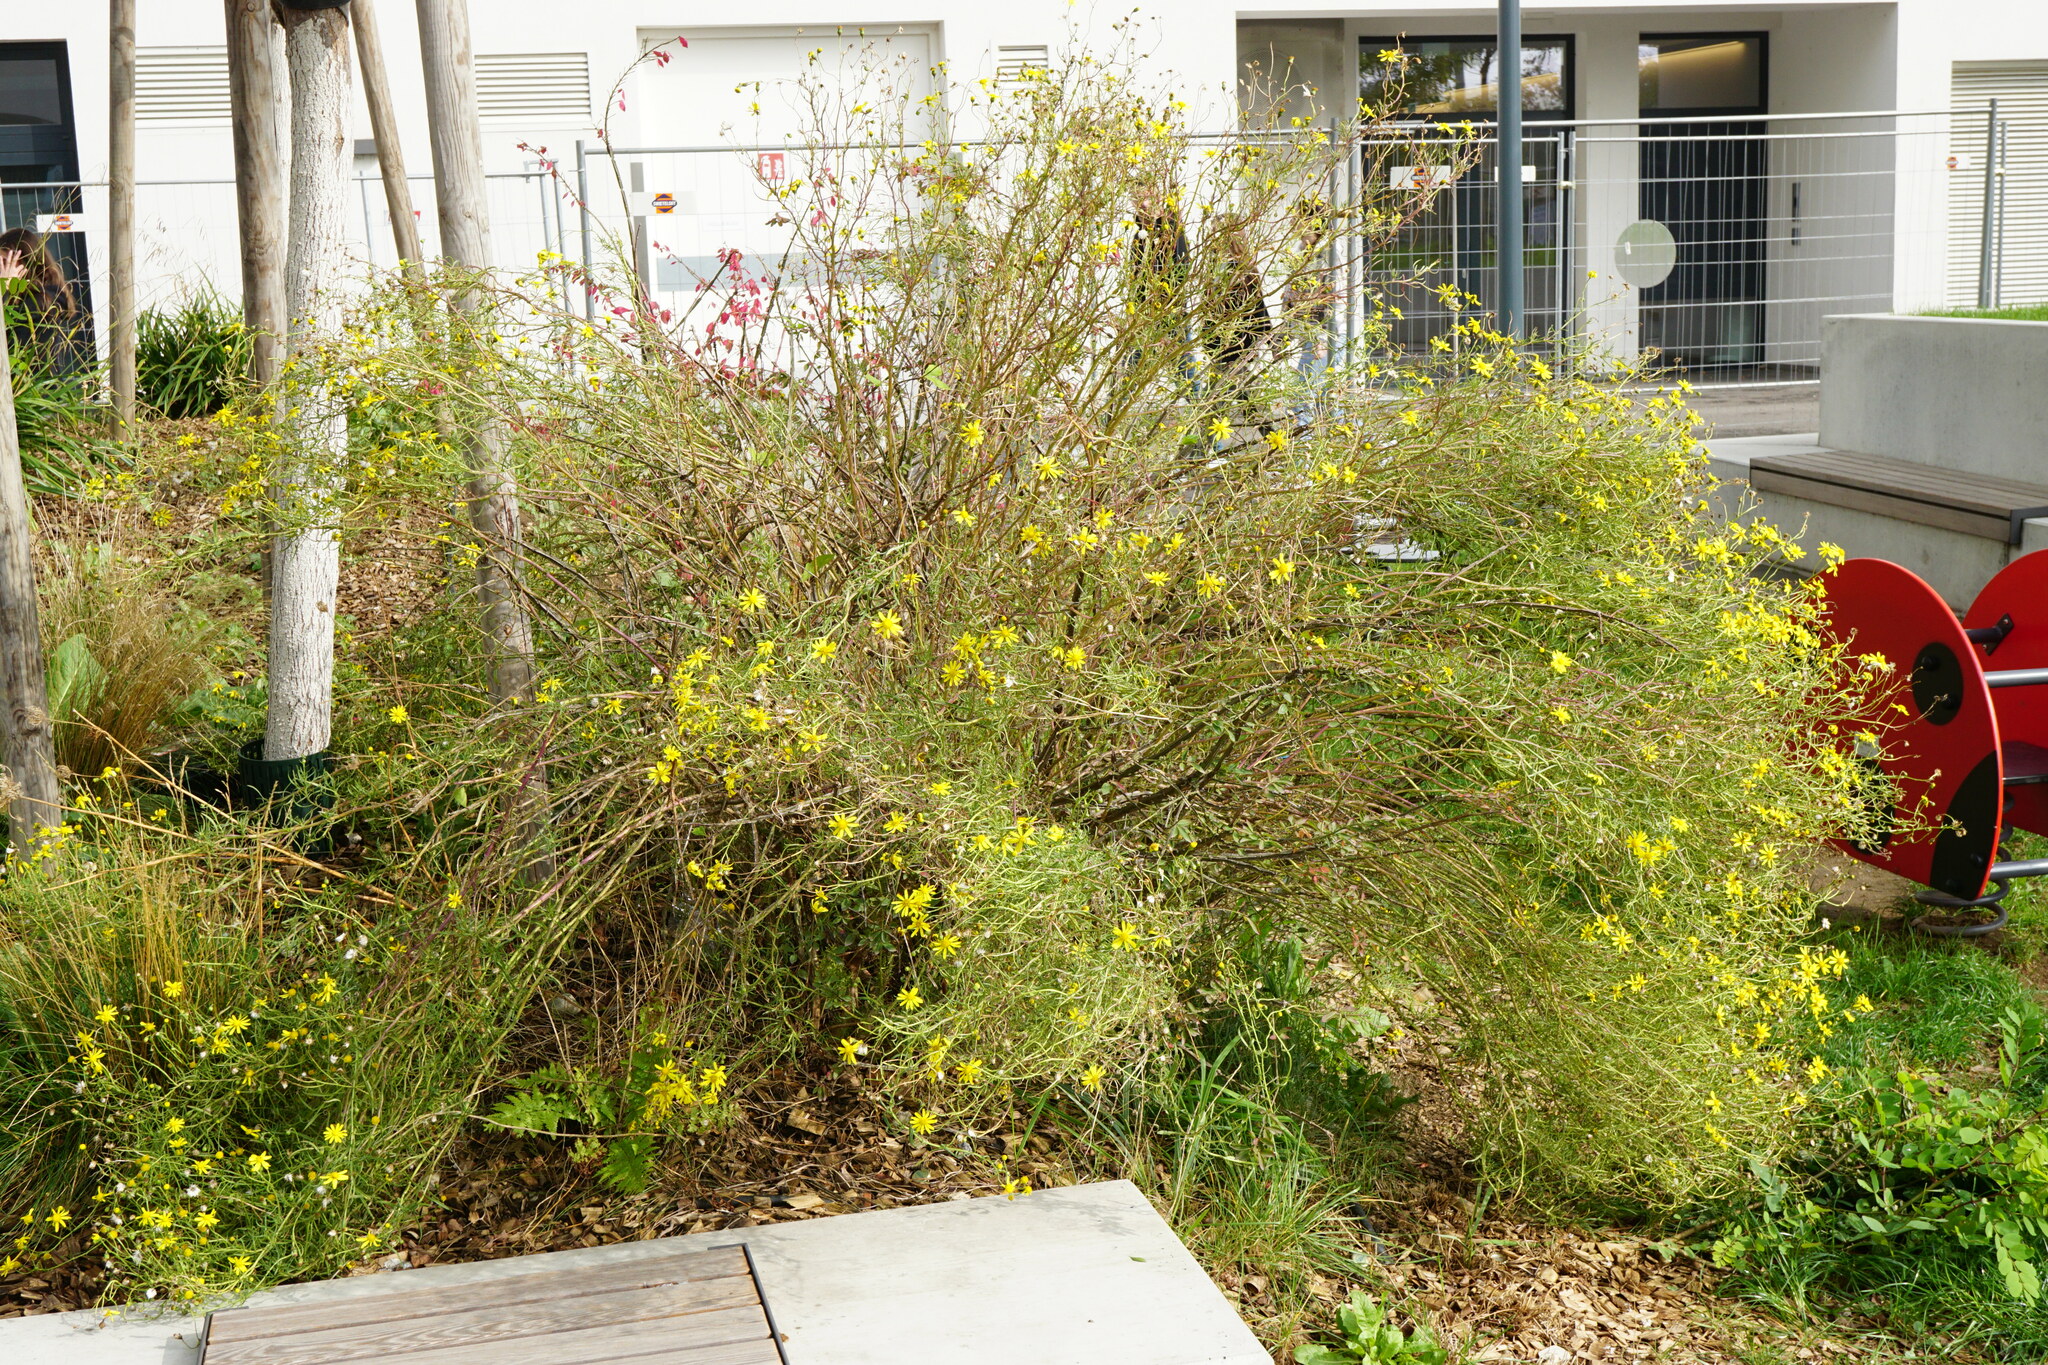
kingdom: Plantae
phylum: Tracheophyta
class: Magnoliopsida
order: Asterales
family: Asteraceae
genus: Senecio
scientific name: Senecio inaequidens
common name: Narrow-leaved ragwort
